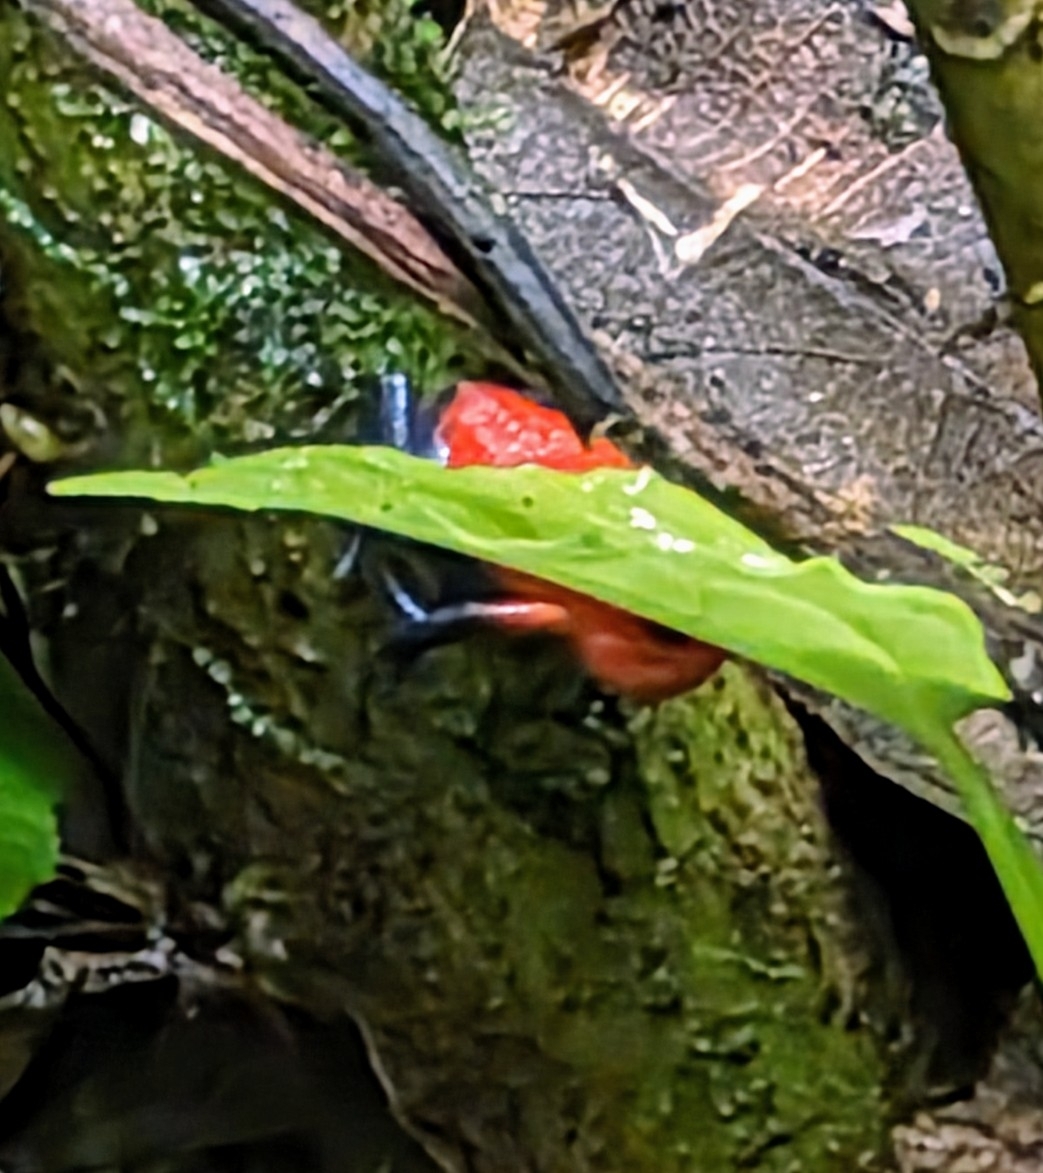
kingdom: Animalia
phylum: Chordata
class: Amphibia
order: Anura
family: Dendrobatidae
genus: Oophaga
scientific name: Oophaga pumilio
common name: Flaming poison frog
